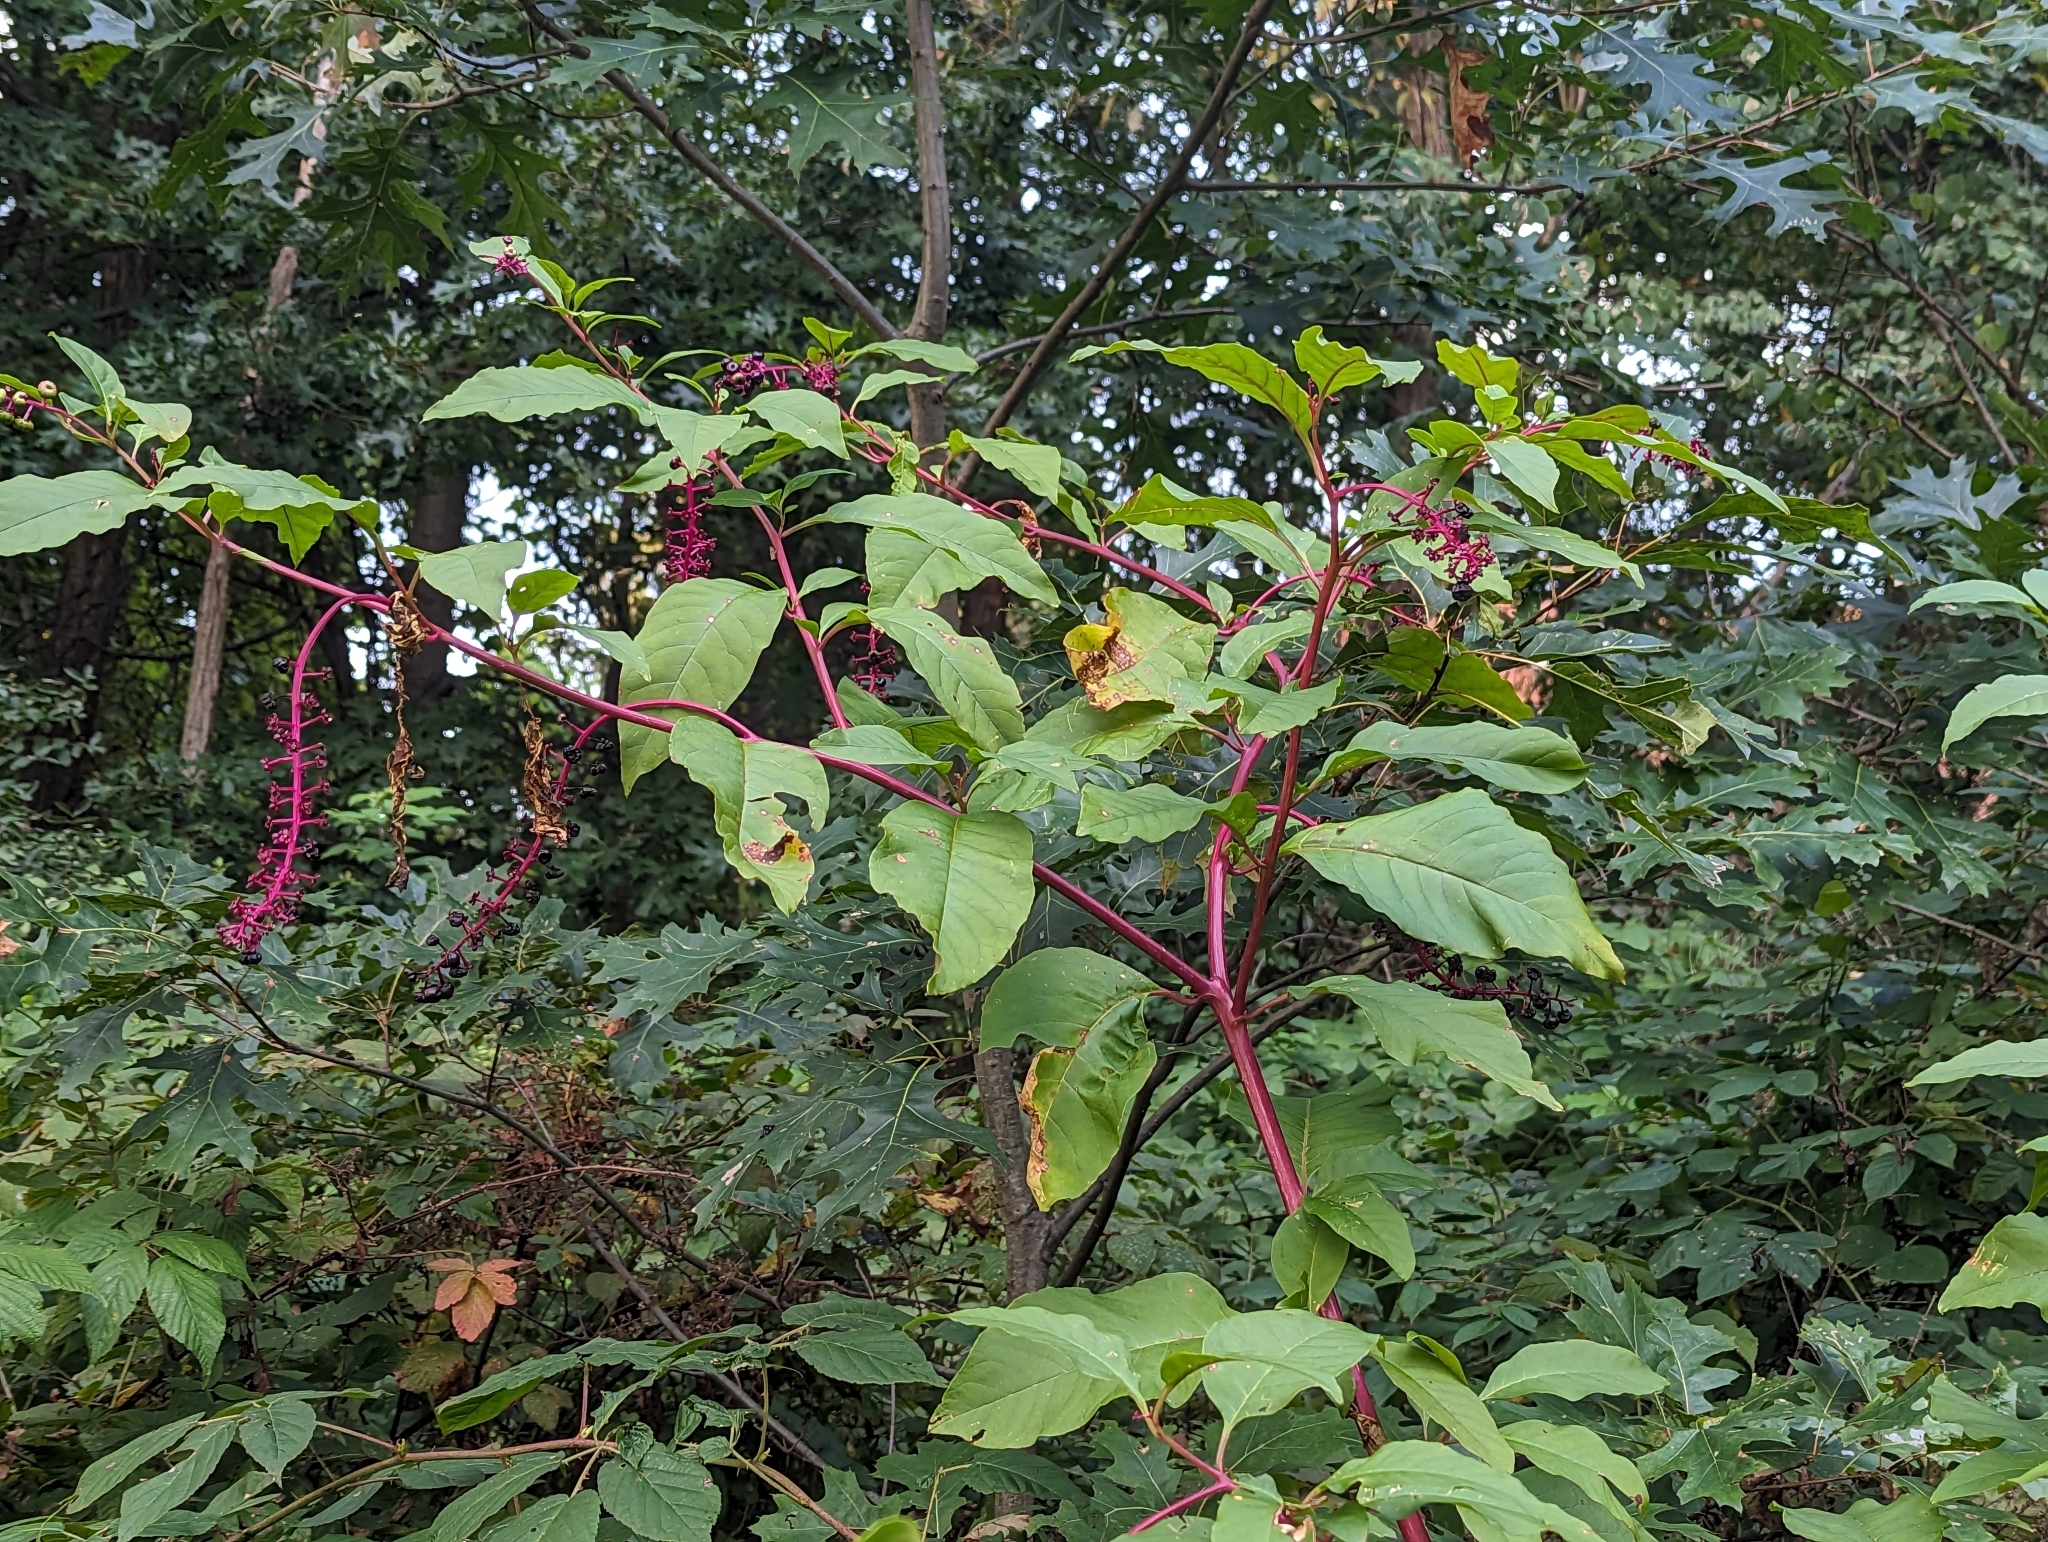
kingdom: Plantae
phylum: Tracheophyta
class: Magnoliopsida
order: Caryophyllales
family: Phytolaccaceae
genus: Phytolacca
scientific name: Phytolacca americana
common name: American pokeweed
